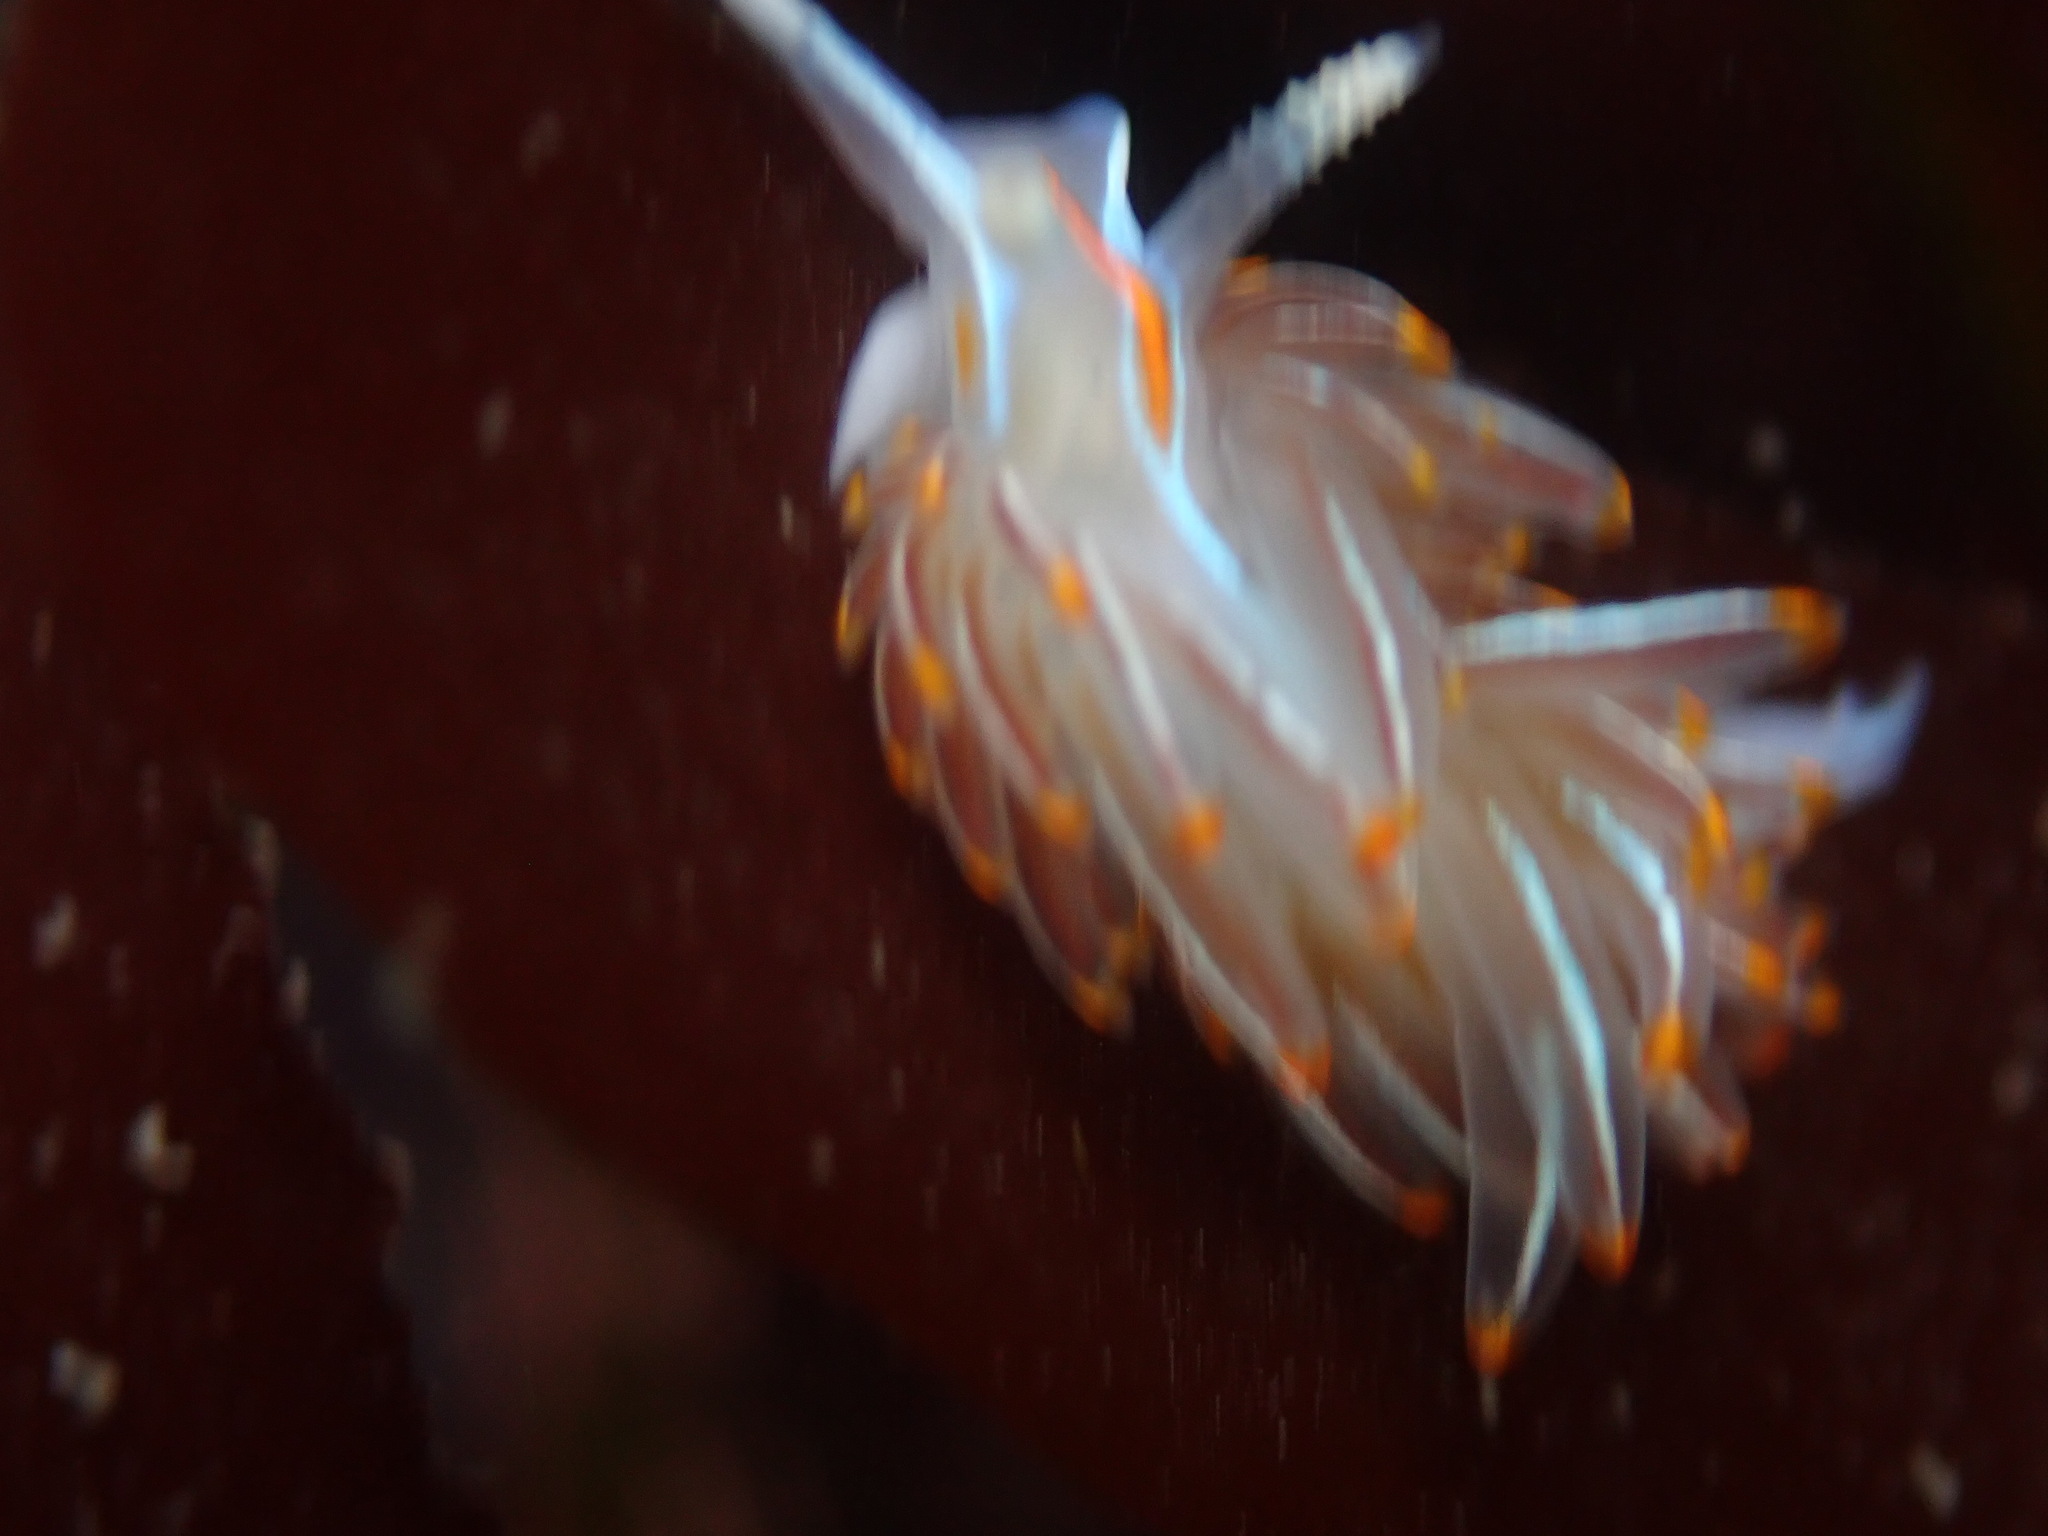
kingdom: Animalia
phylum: Mollusca
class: Gastropoda
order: Nudibranchia
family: Myrrhinidae
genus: Hermissenda
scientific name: Hermissenda crassicornis
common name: Hermissenda
